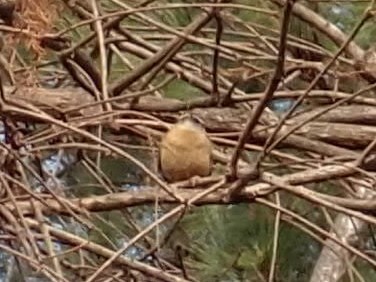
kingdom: Animalia
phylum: Chordata
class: Aves
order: Passeriformes
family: Troglodytidae
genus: Thryothorus
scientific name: Thryothorus ludovicianus
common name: Carolina wren
